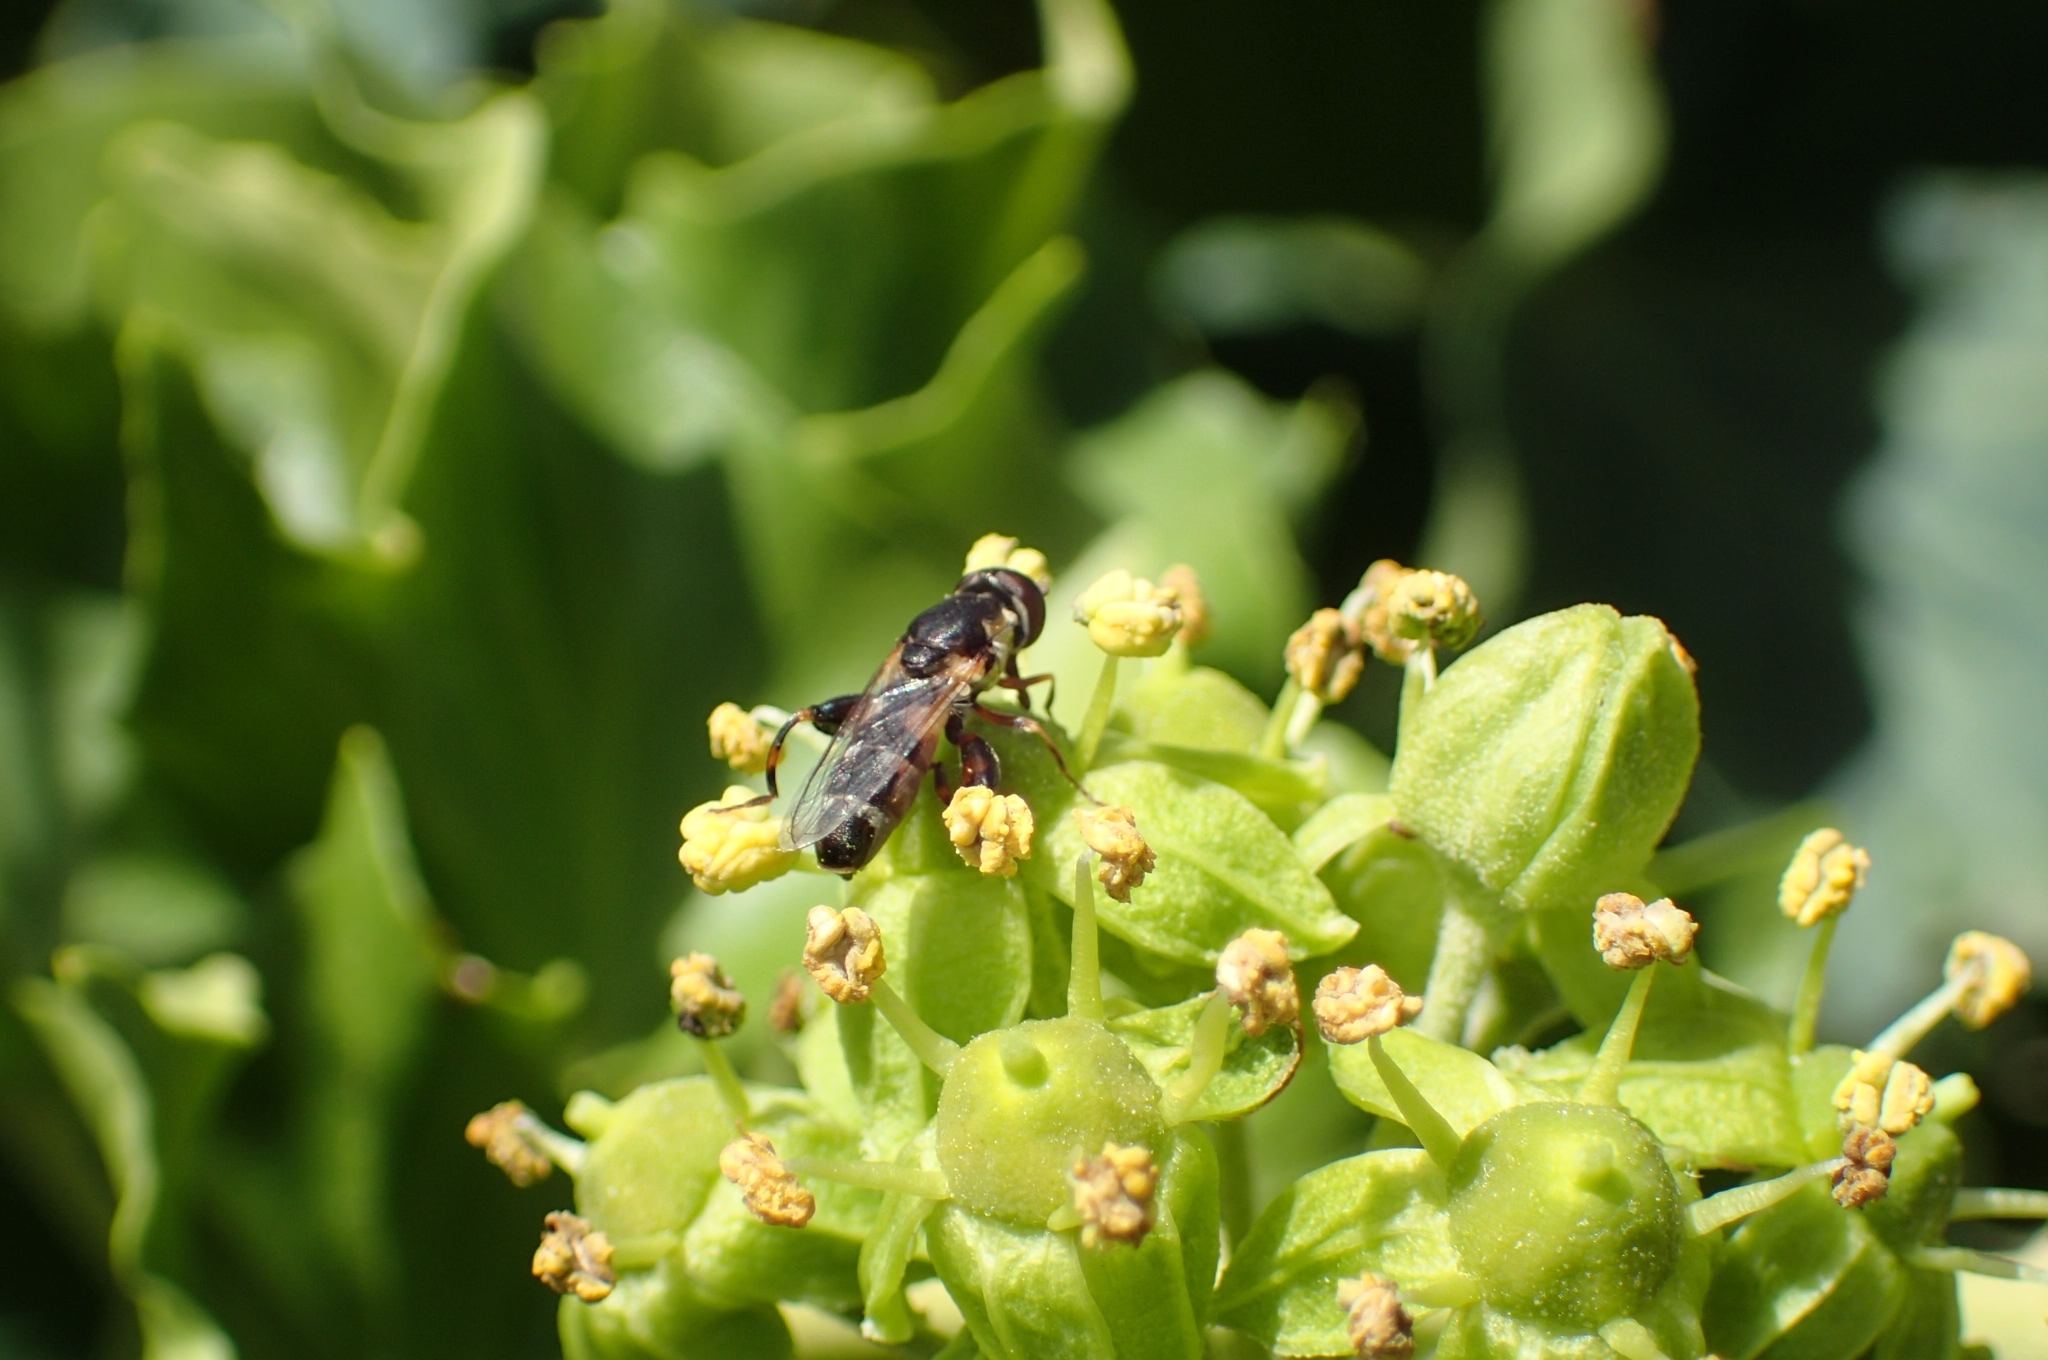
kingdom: Animalia
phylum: Arthropoda
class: Insecta
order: Diptera
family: Syrphidae
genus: Syritta
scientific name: Syritta pipiens
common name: Hover fly
